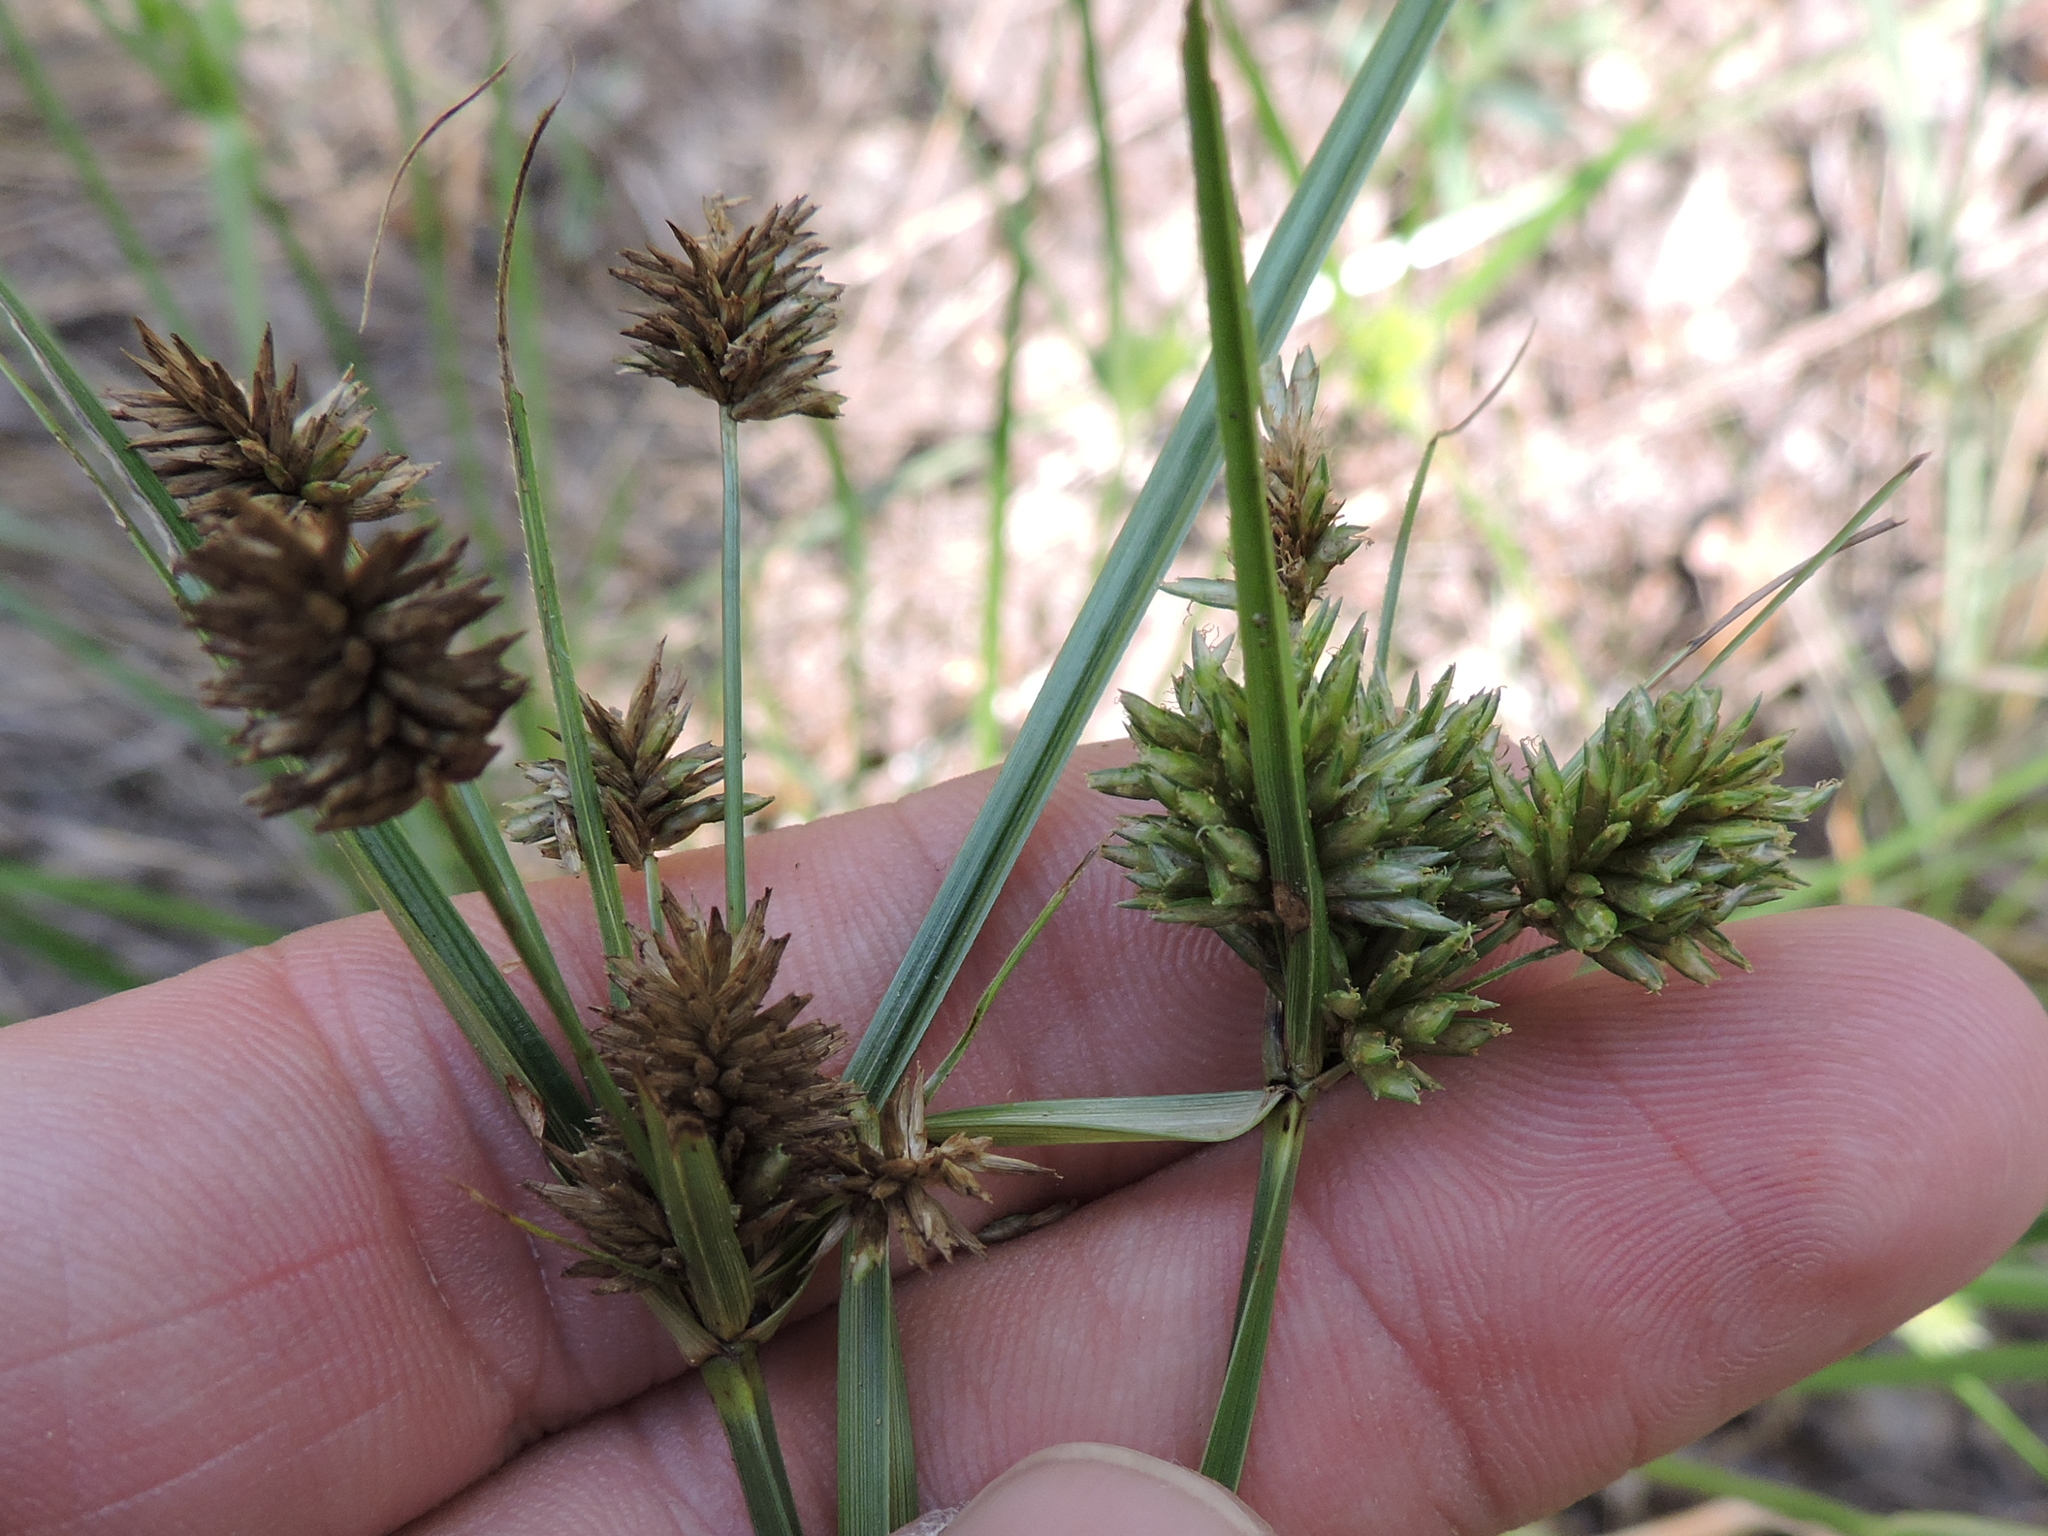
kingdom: Plantae
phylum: Tracheophyta
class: Liliopsida
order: Poales
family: Cyperaceae
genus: Cyperus
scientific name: Cyperus retrorsus
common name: Pinebarren flat sedge
